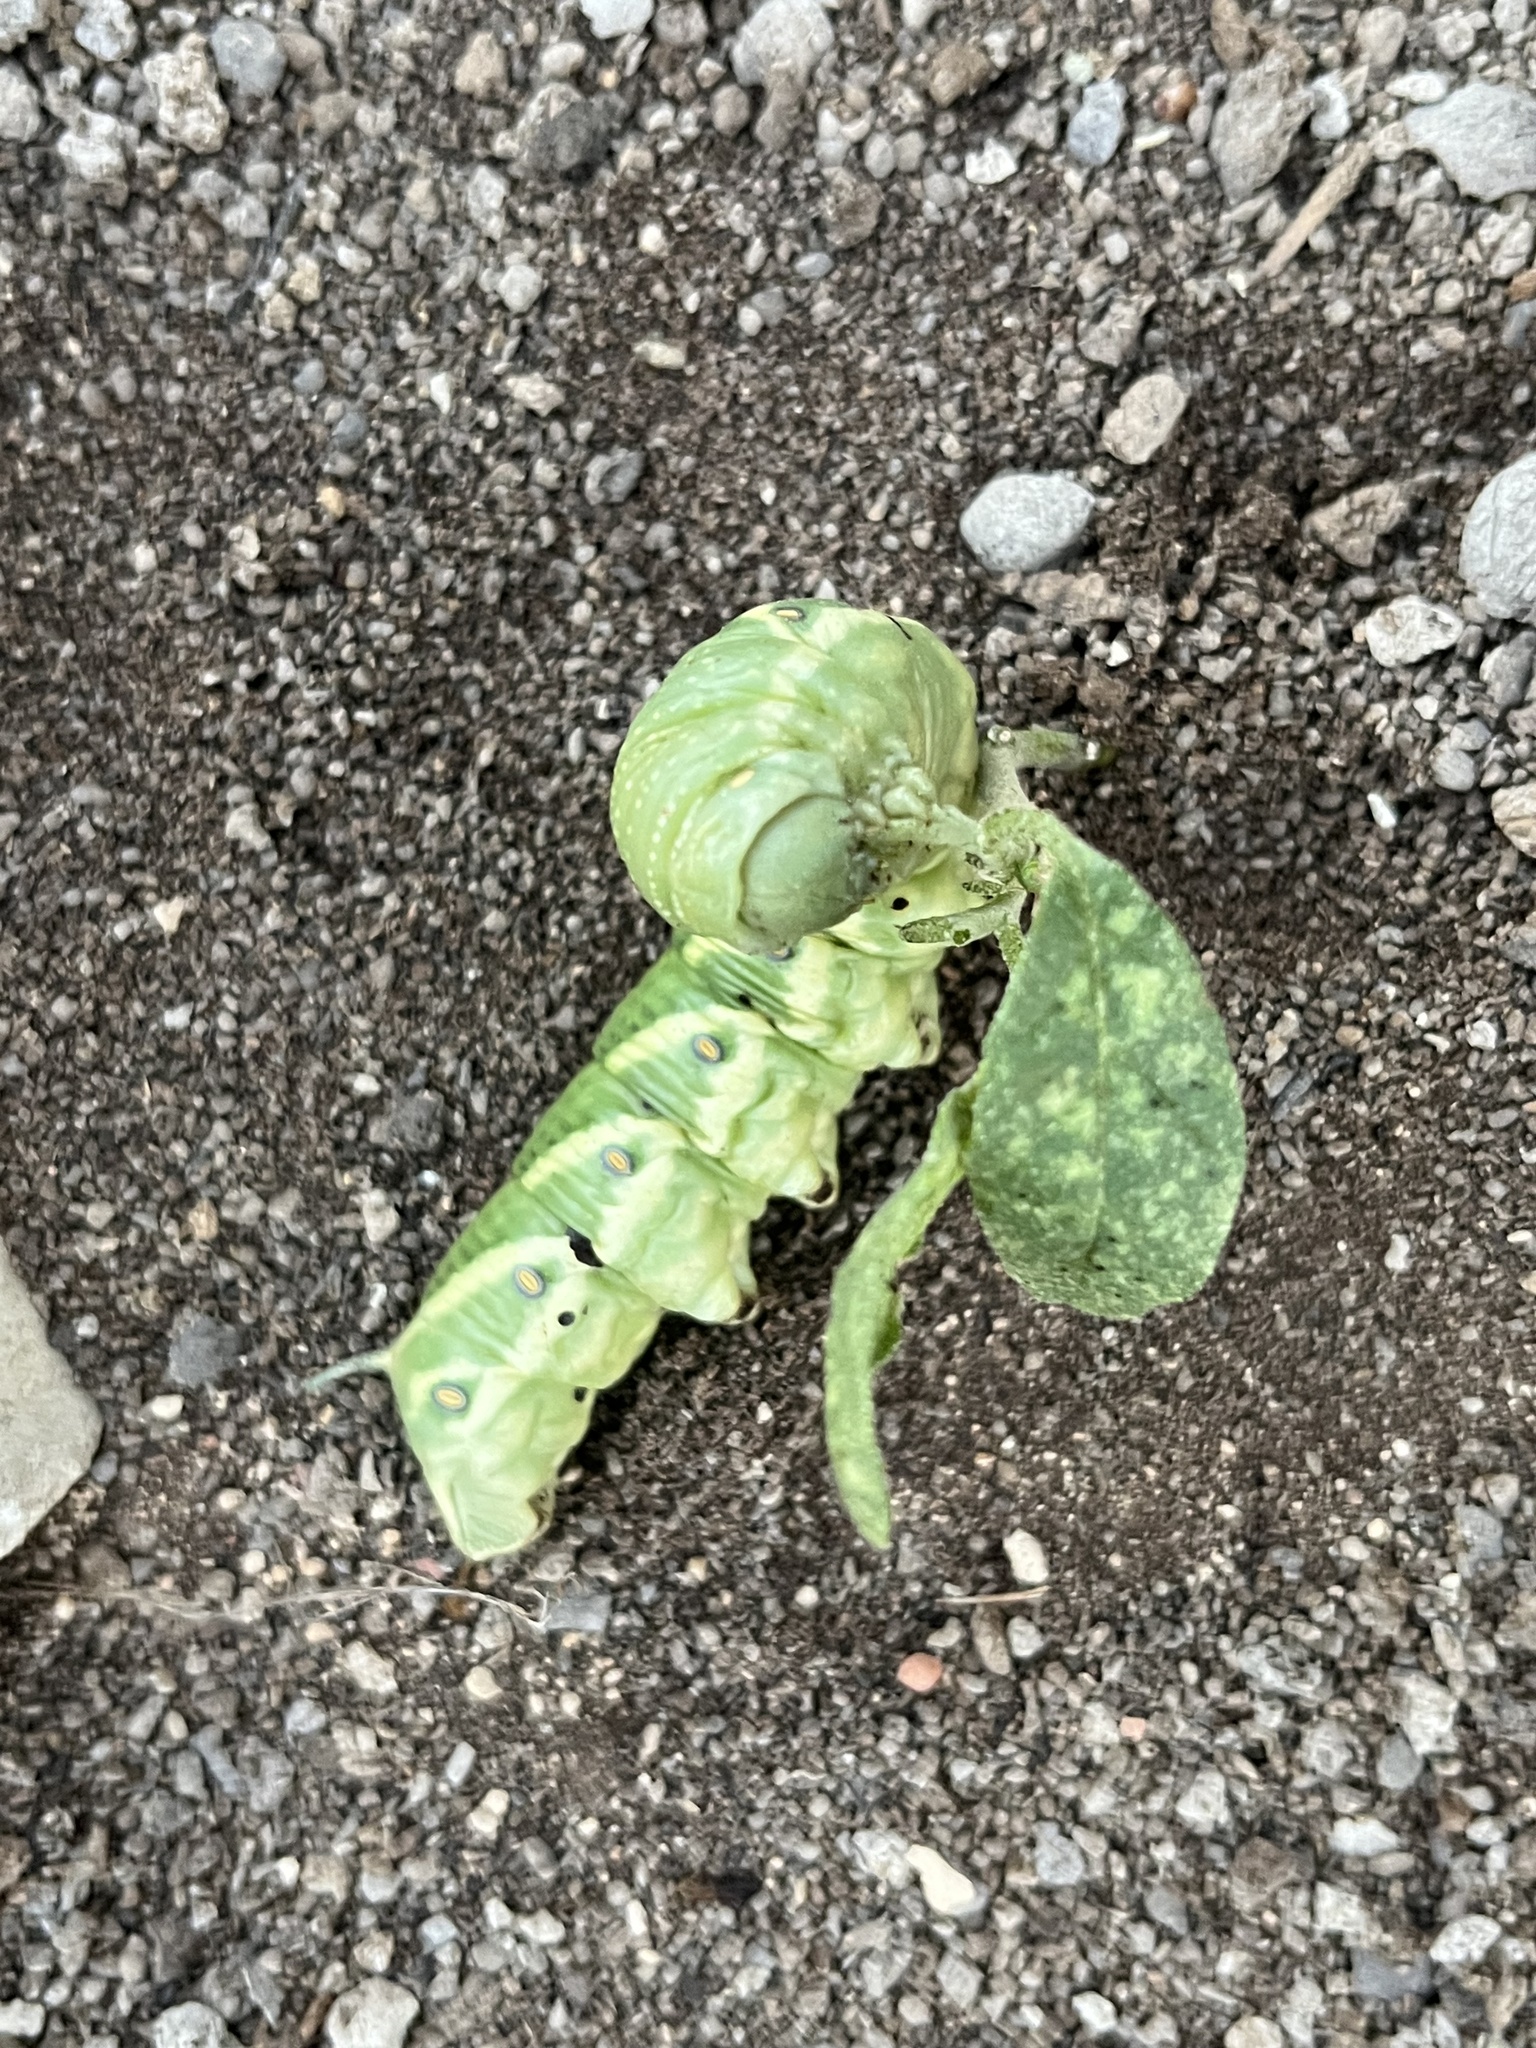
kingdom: Animalia
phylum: Arthropoda
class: Insecta
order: Lepidoptera
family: Sphingidae
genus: Manduca
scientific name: Manduca quinquemaculatus
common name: Five-spotted hawk-moth
